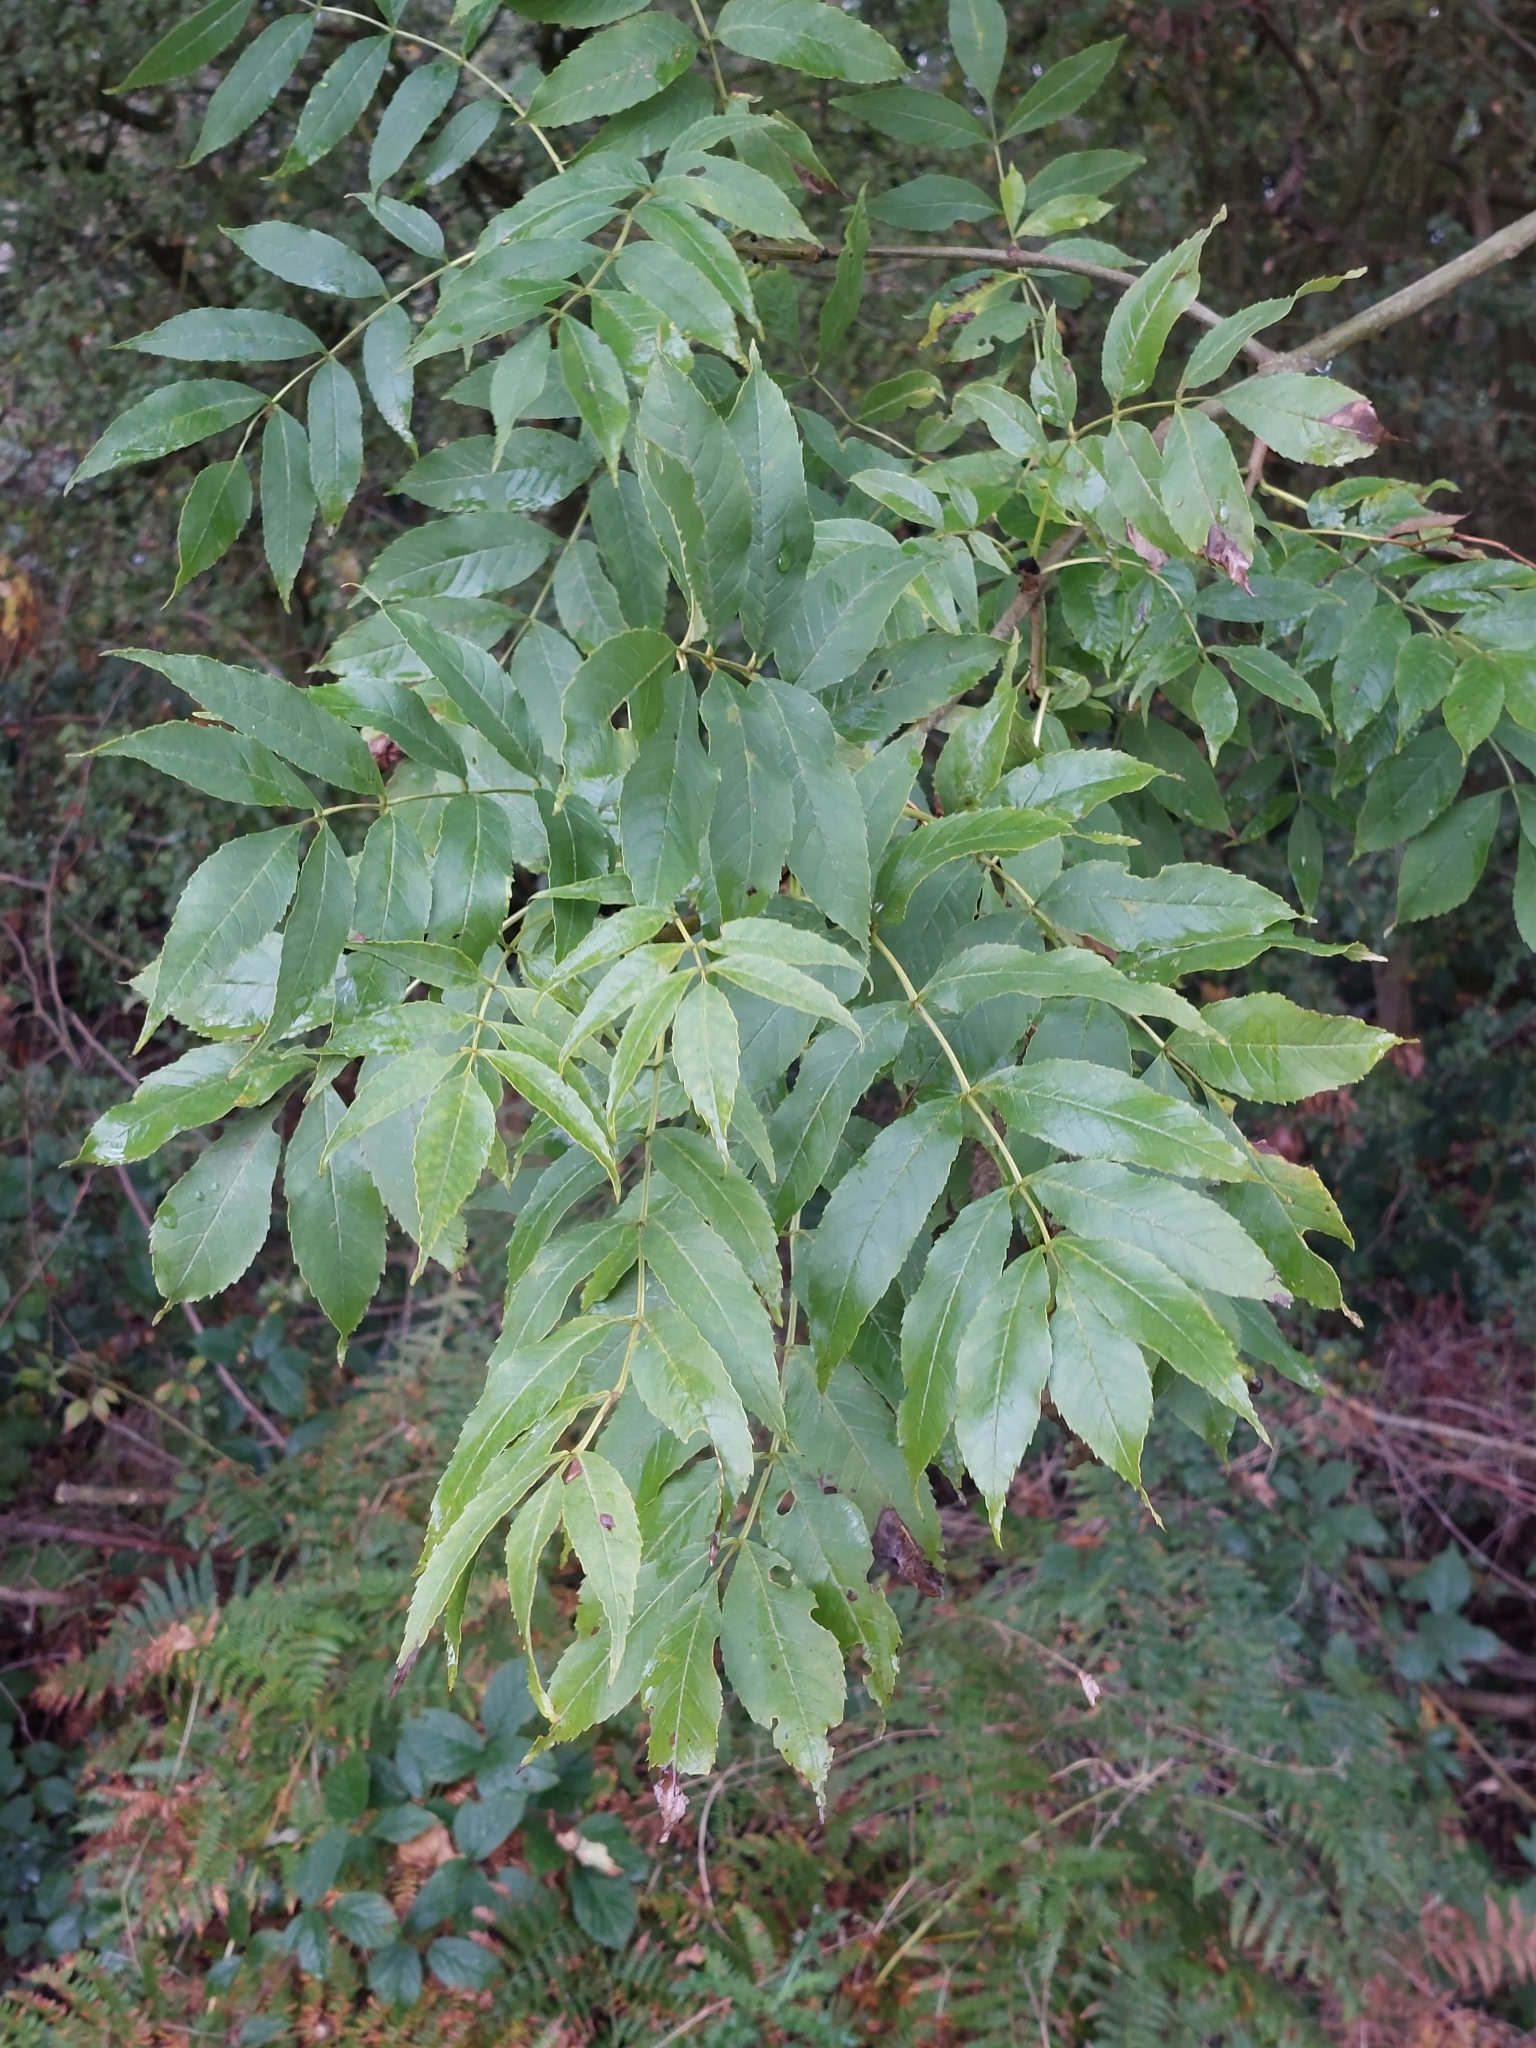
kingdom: Plantae
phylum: Tracheophyta
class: Magnoliopsida
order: Lamiales
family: Oleaceae
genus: Fraxinus
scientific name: Fraxinus excelsior
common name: European ash
